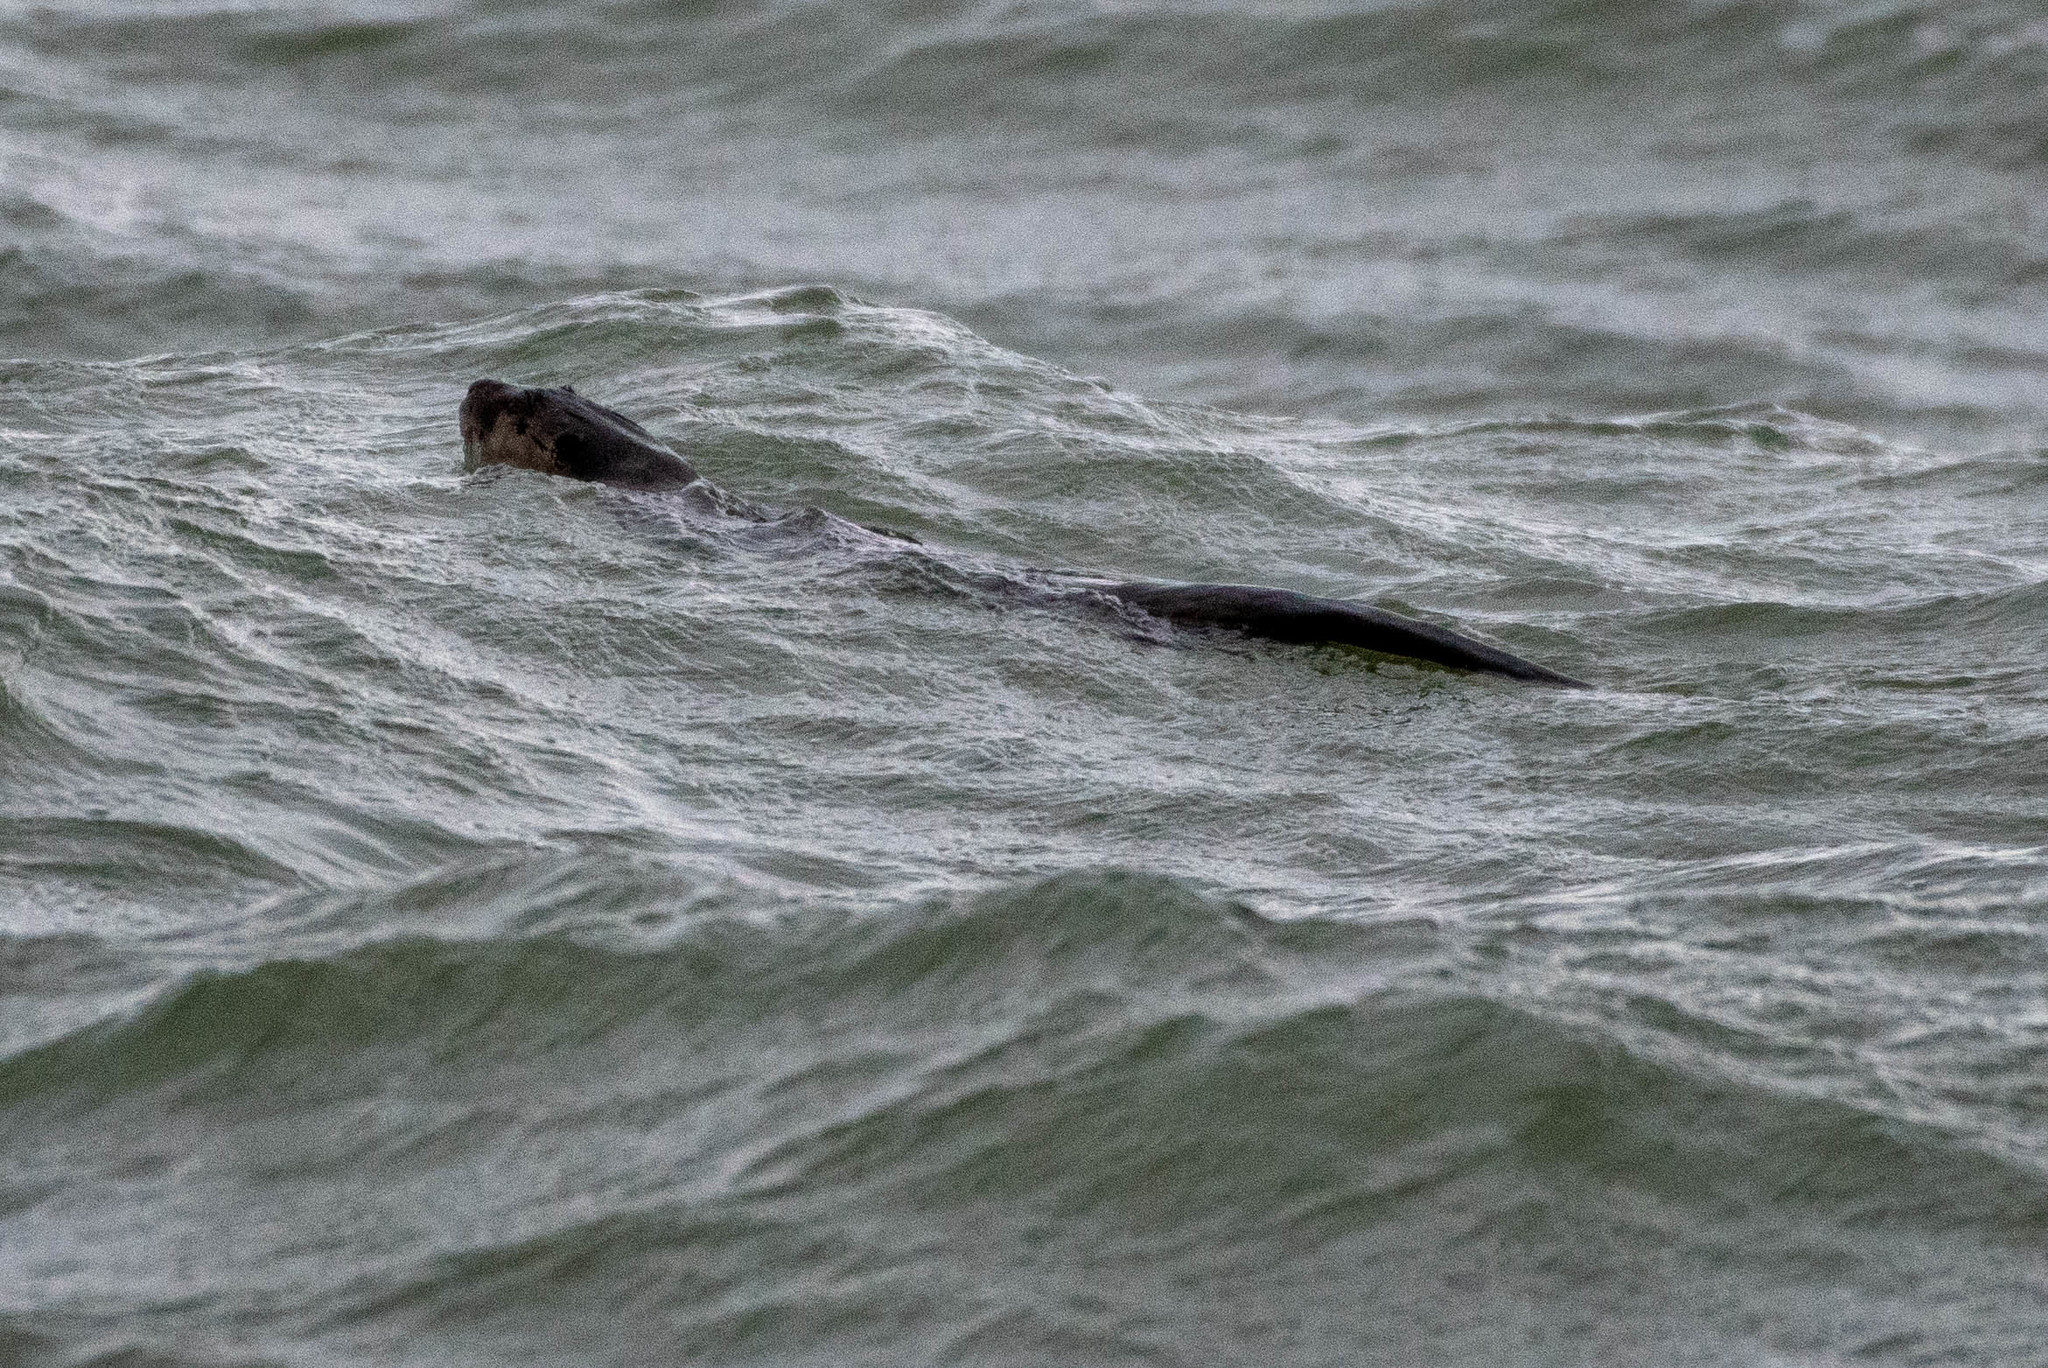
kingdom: Animalia
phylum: Chordata
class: Mammalia
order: Carnivora
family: Mustelidae
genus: Lontra
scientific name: Lontra canadensis
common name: North american river otter
